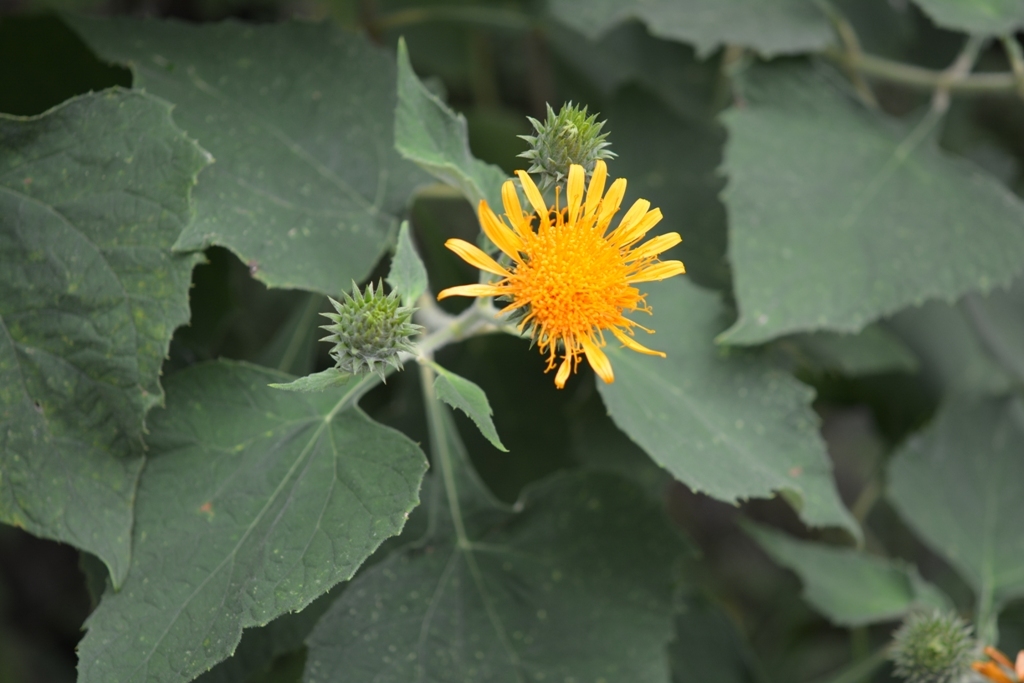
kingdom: Plantae
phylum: Tracheophyta
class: Magnoliopsida
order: Asterales
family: Asteraceae
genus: Sinclairia
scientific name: Sinclairia andrieuxii
